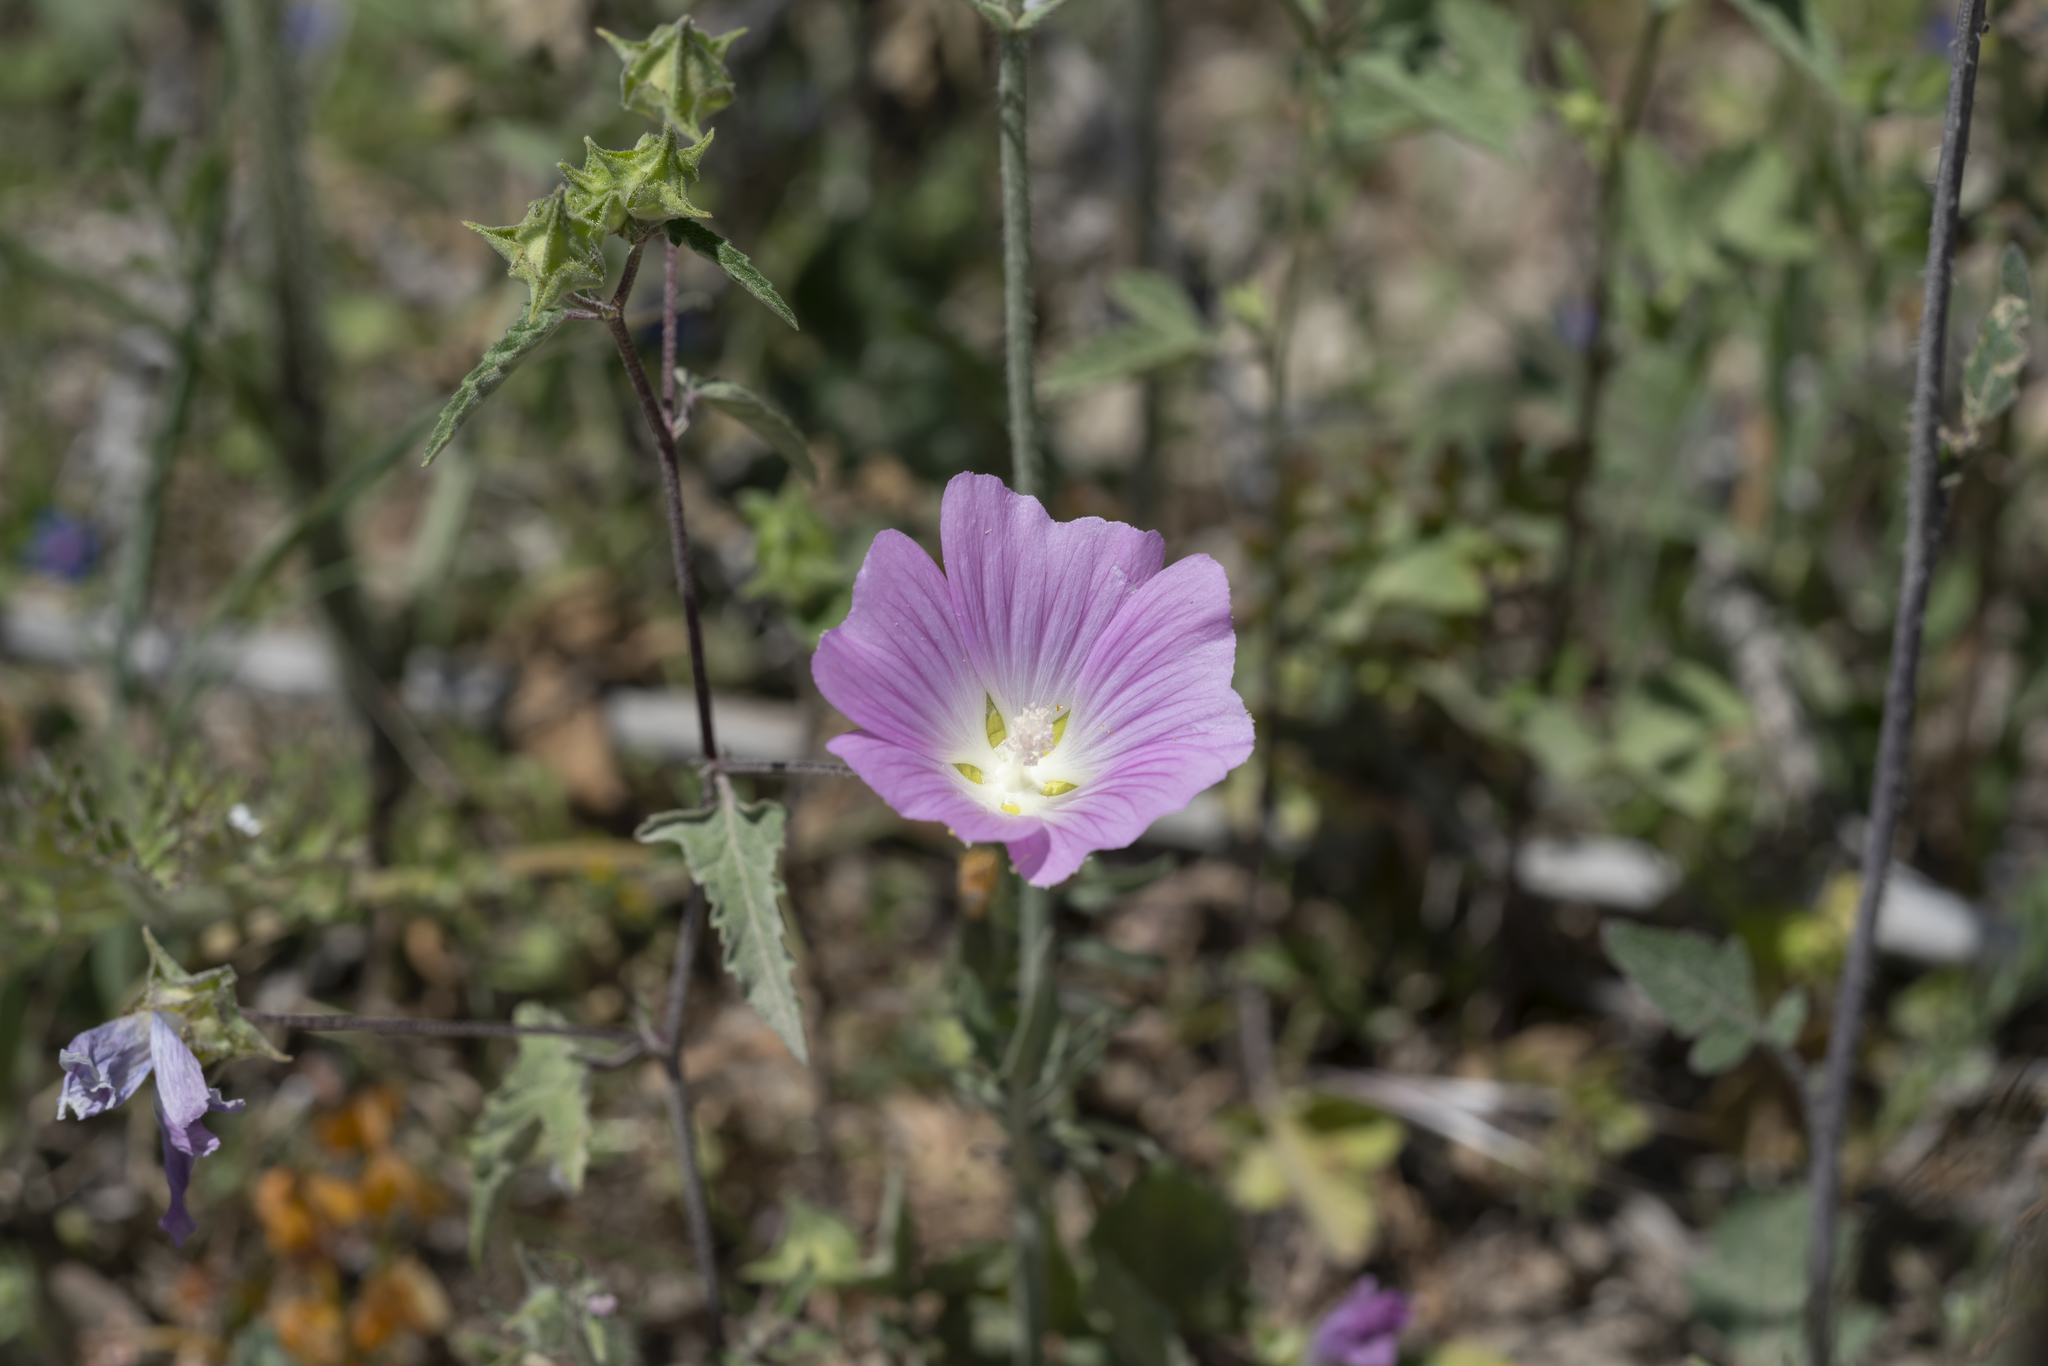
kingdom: Plantae
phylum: Tracheophyta
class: Magnoliopsida
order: Malvales
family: Malvaceae
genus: Malva
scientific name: Malva punctata
